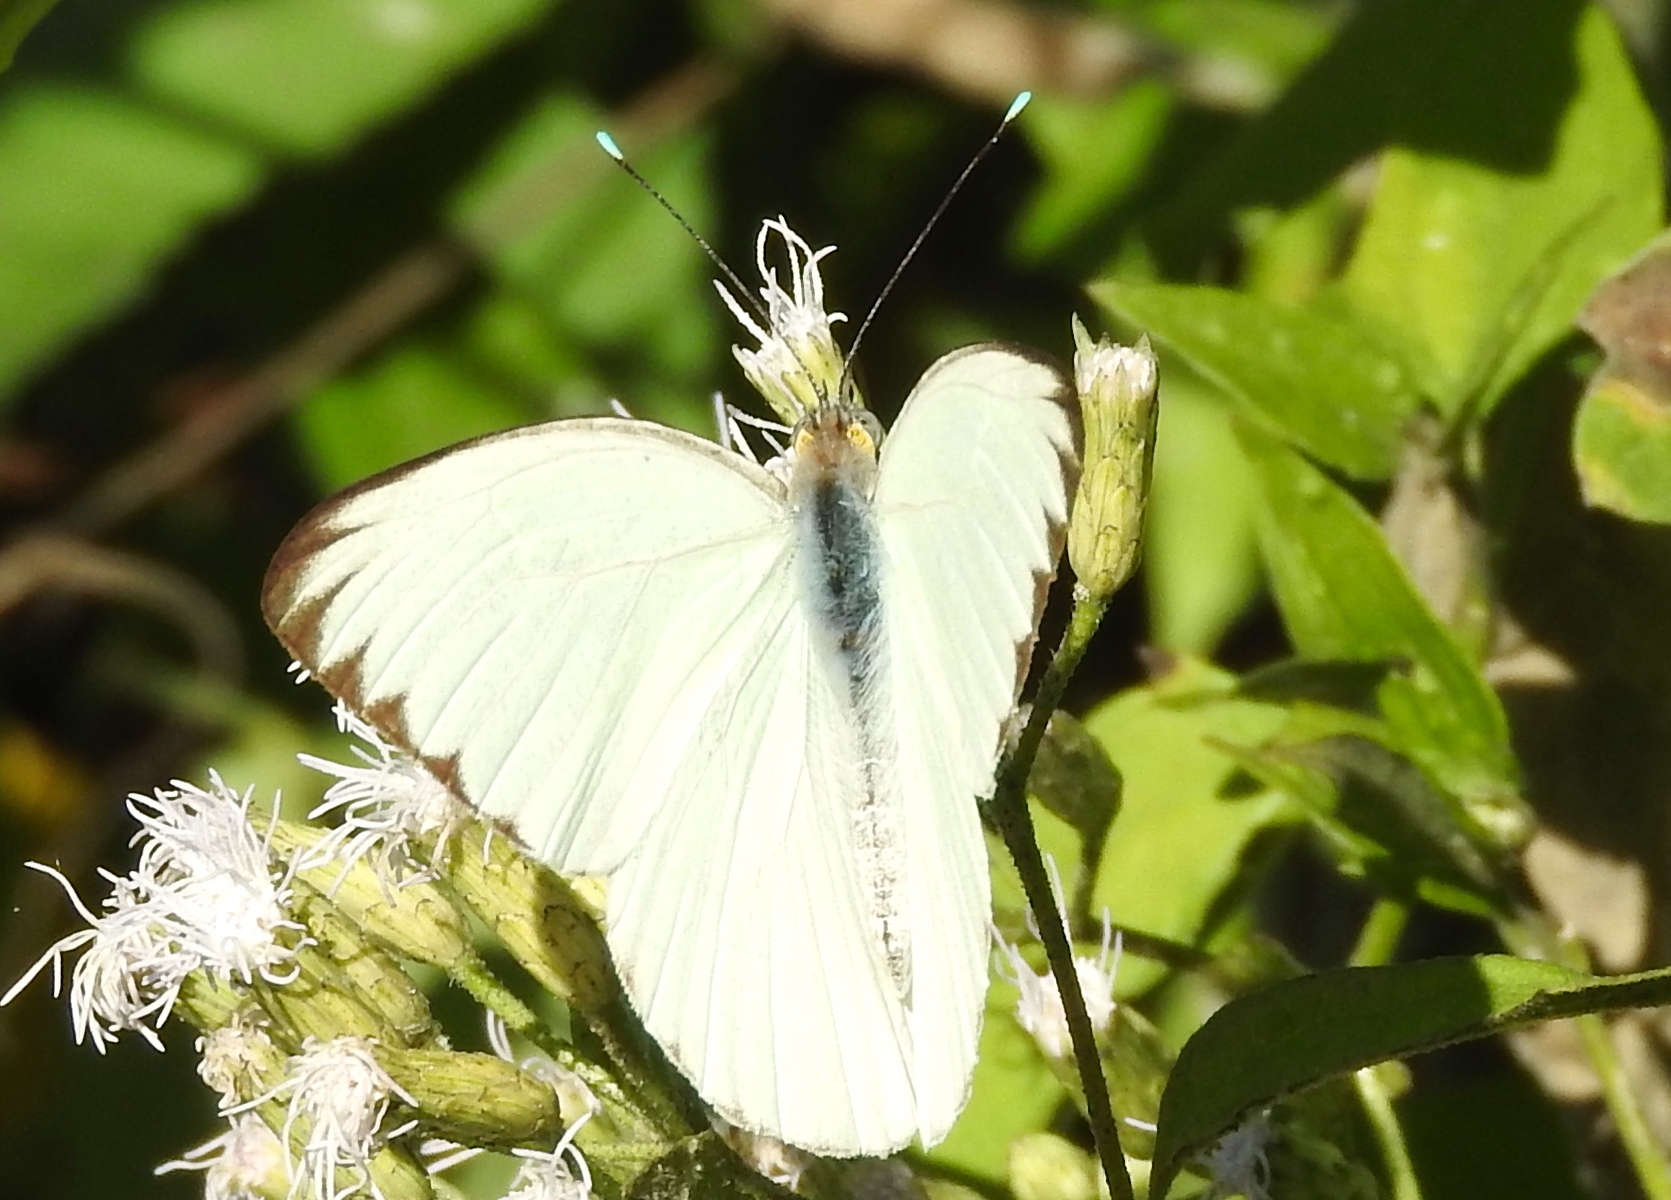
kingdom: Animalia
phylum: Arthropoda
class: Insecta
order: Lepidoptera
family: Pieridae
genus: Ascia
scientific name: Ascia monuste
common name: Great southern white
